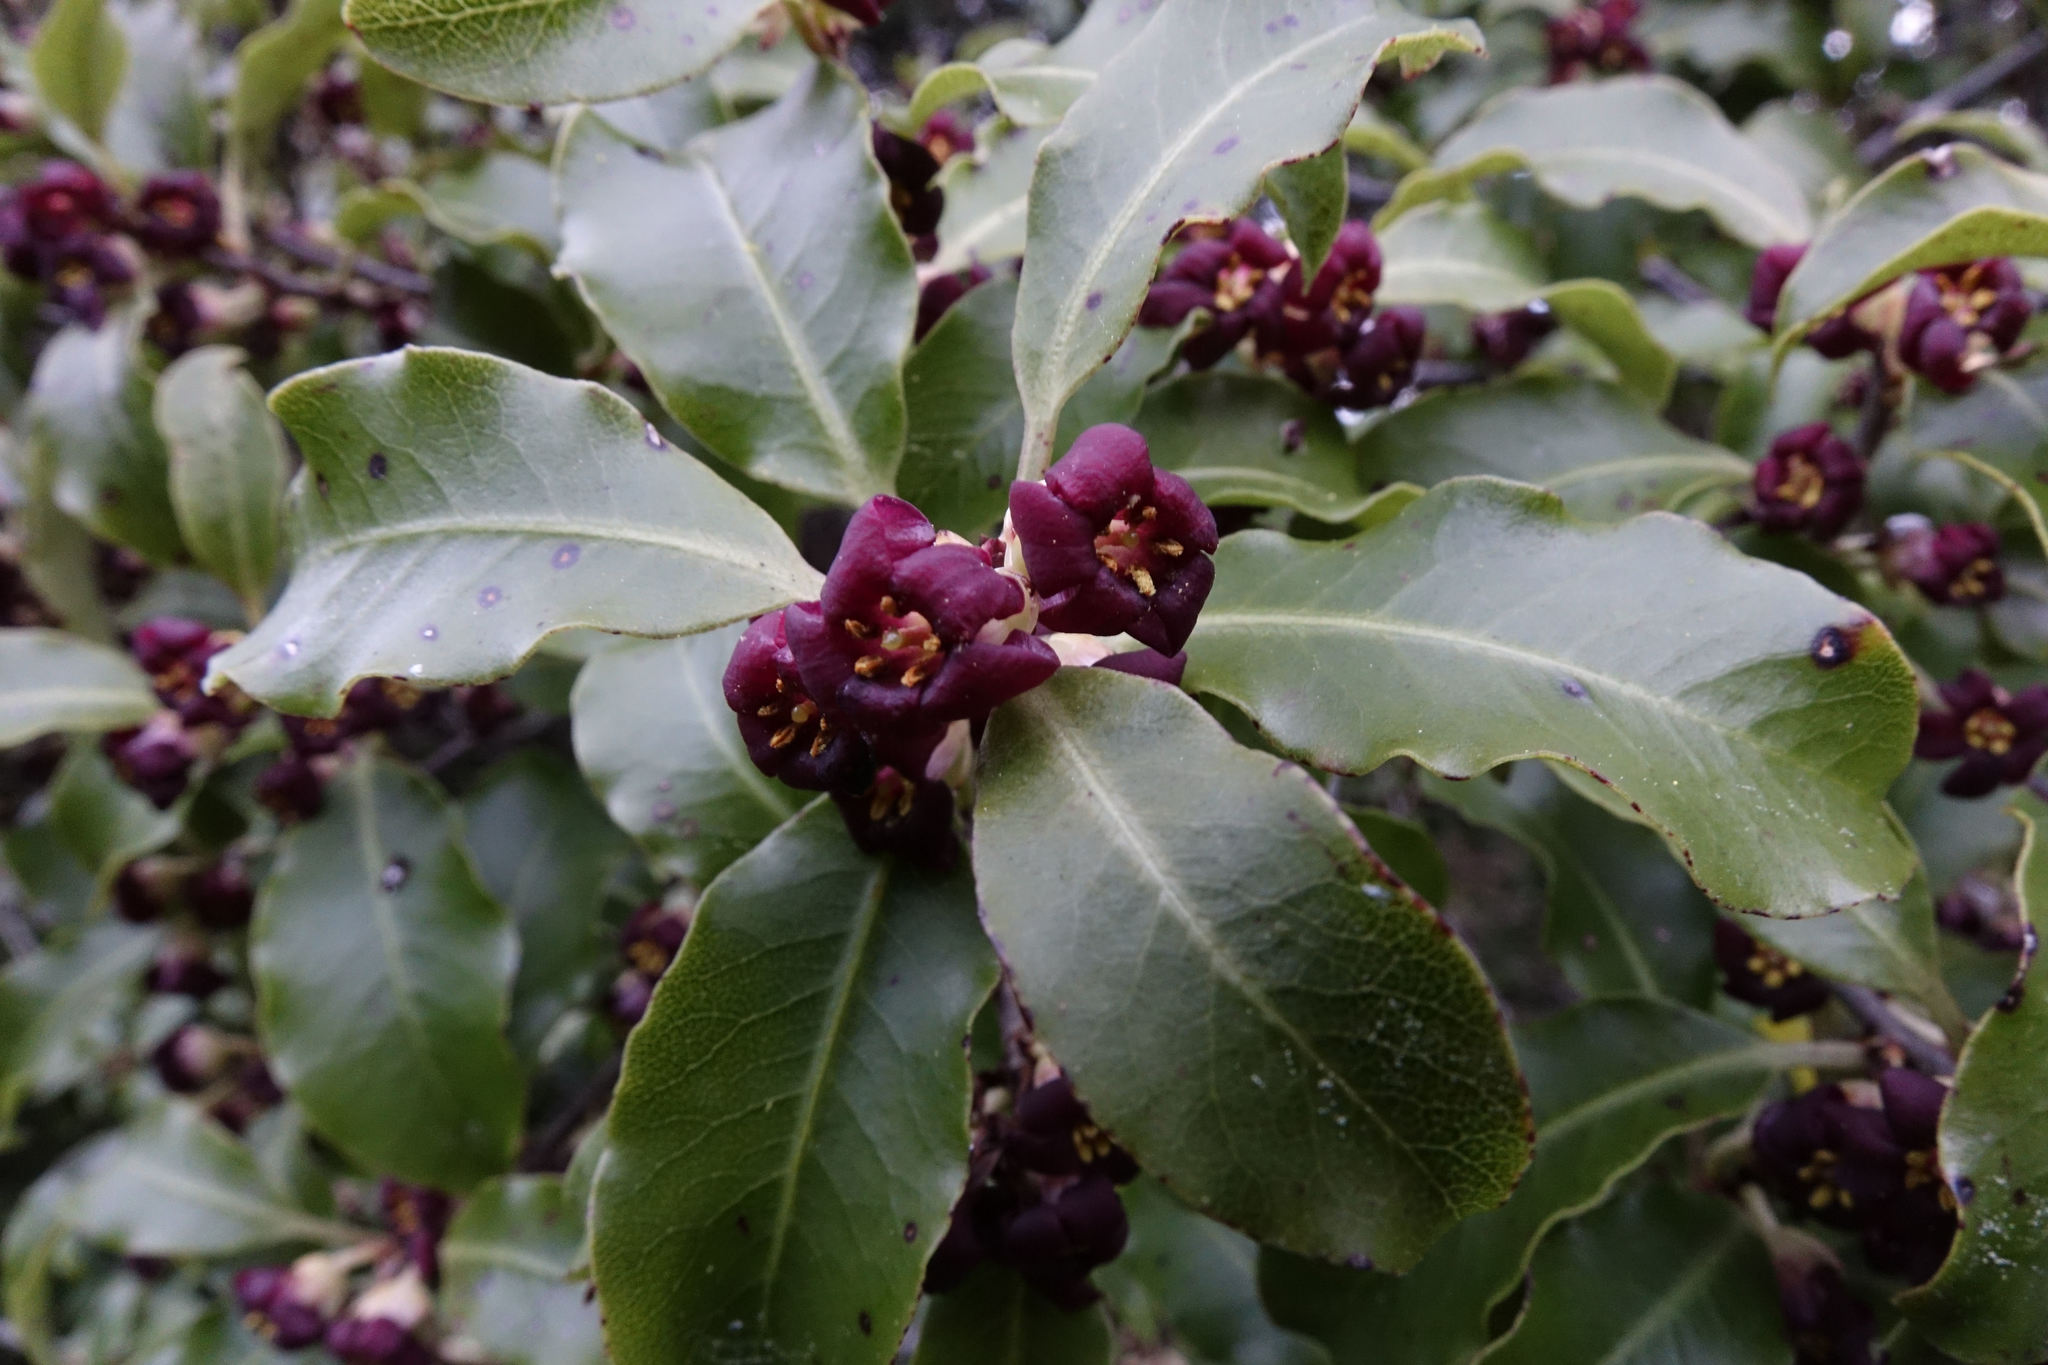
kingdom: Plantae
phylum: Tracheophyta
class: Magnoliopsida
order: Apiales
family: Pittosporaceae
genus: Pittosporum
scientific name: Pittosporum tenuifolium
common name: Kohuhu
